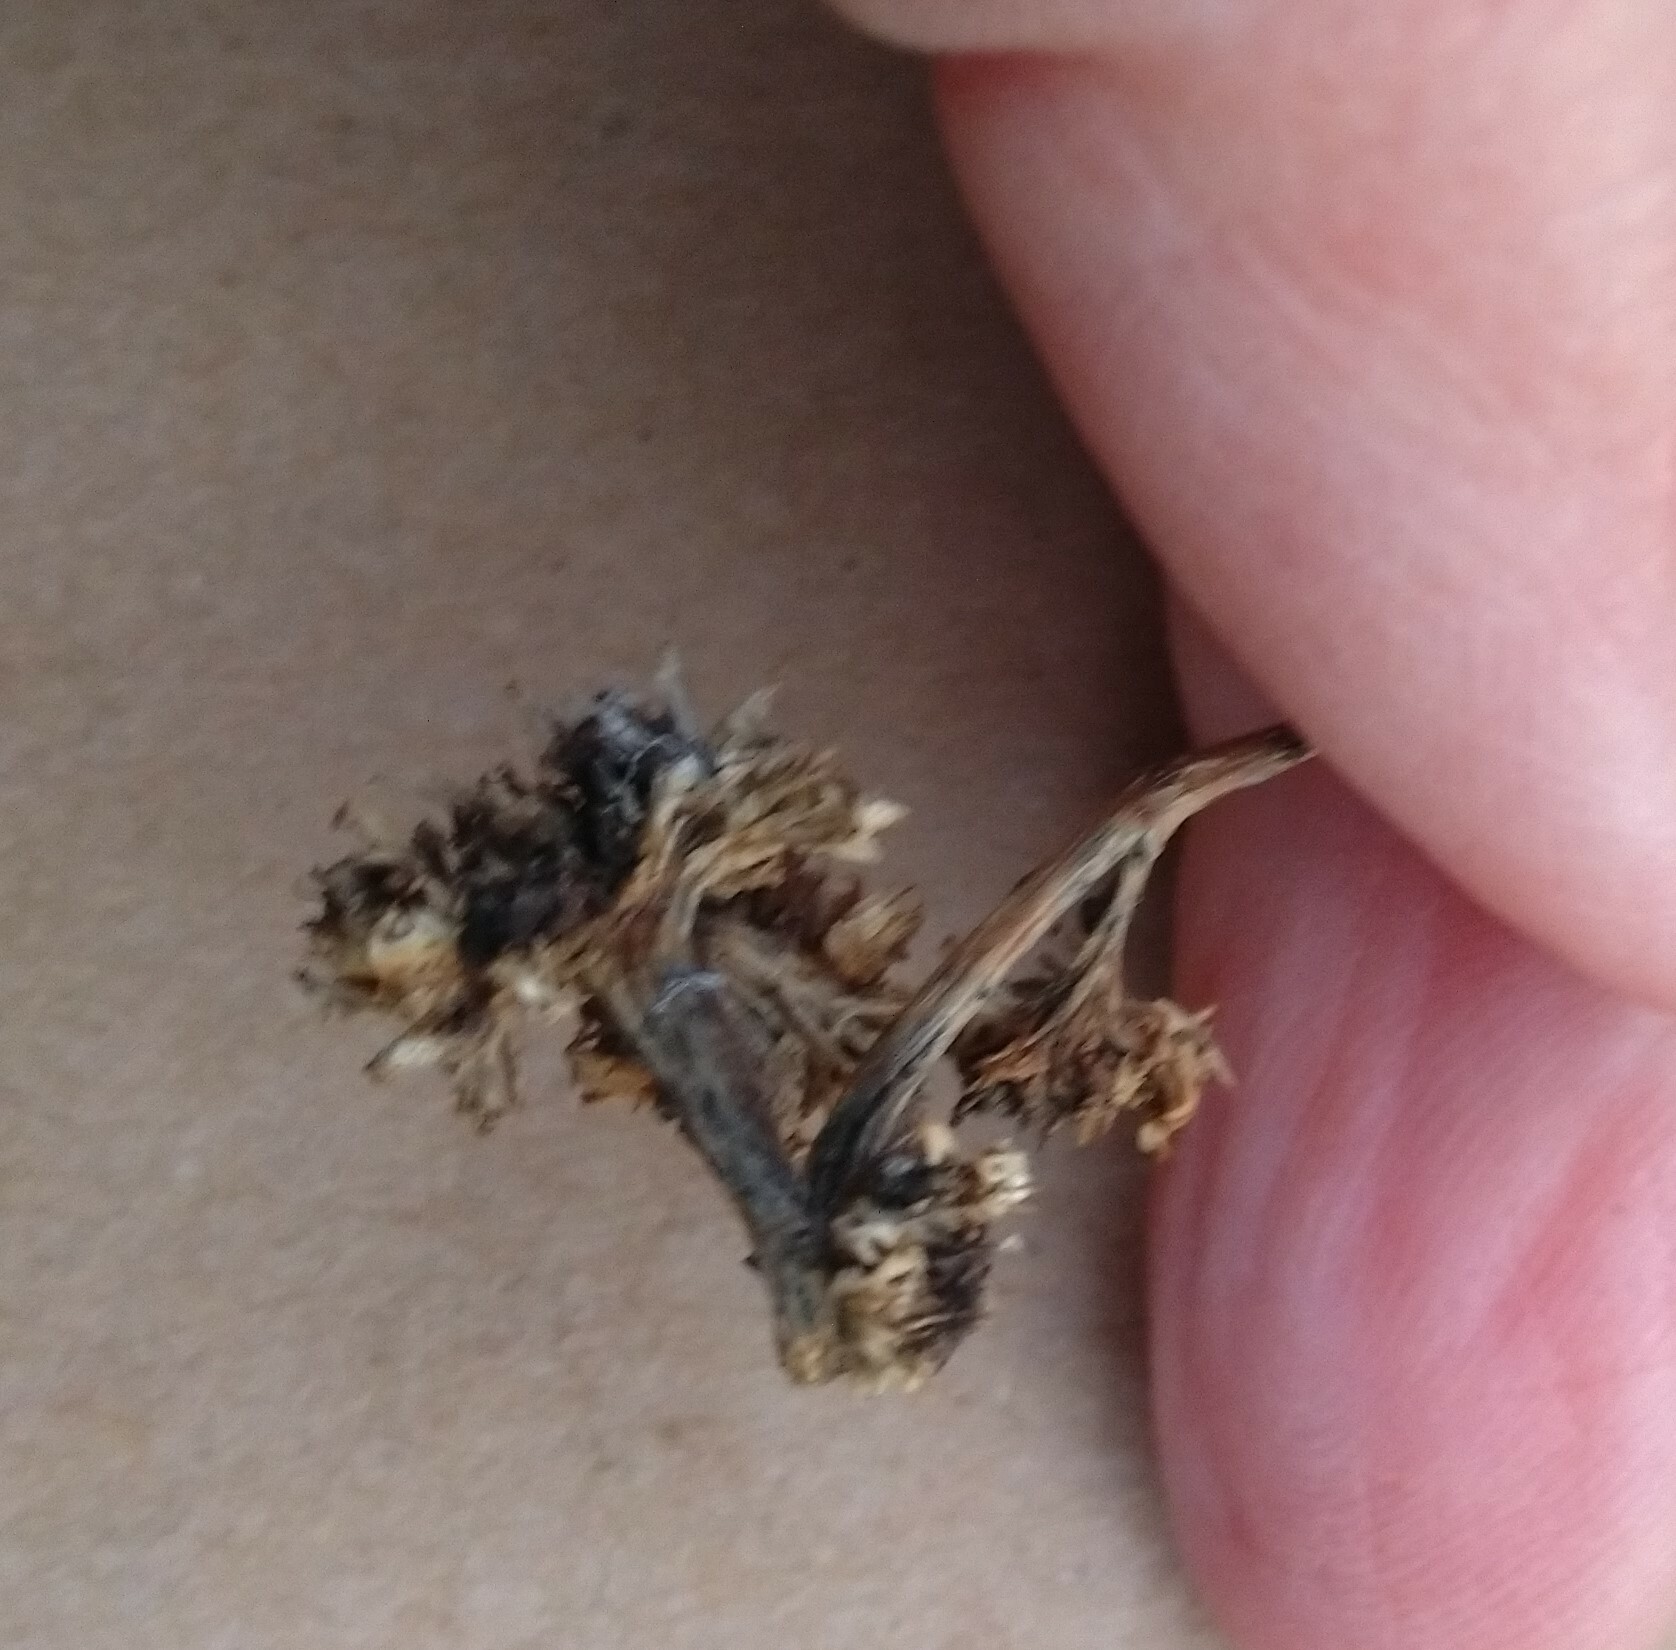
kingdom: Animalia
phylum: Arthropoda
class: Arachnida
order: Trombidiformes
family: Eriophyidae
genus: Aceria
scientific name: Aceria fraxiniflora
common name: Ash flower gall mite
